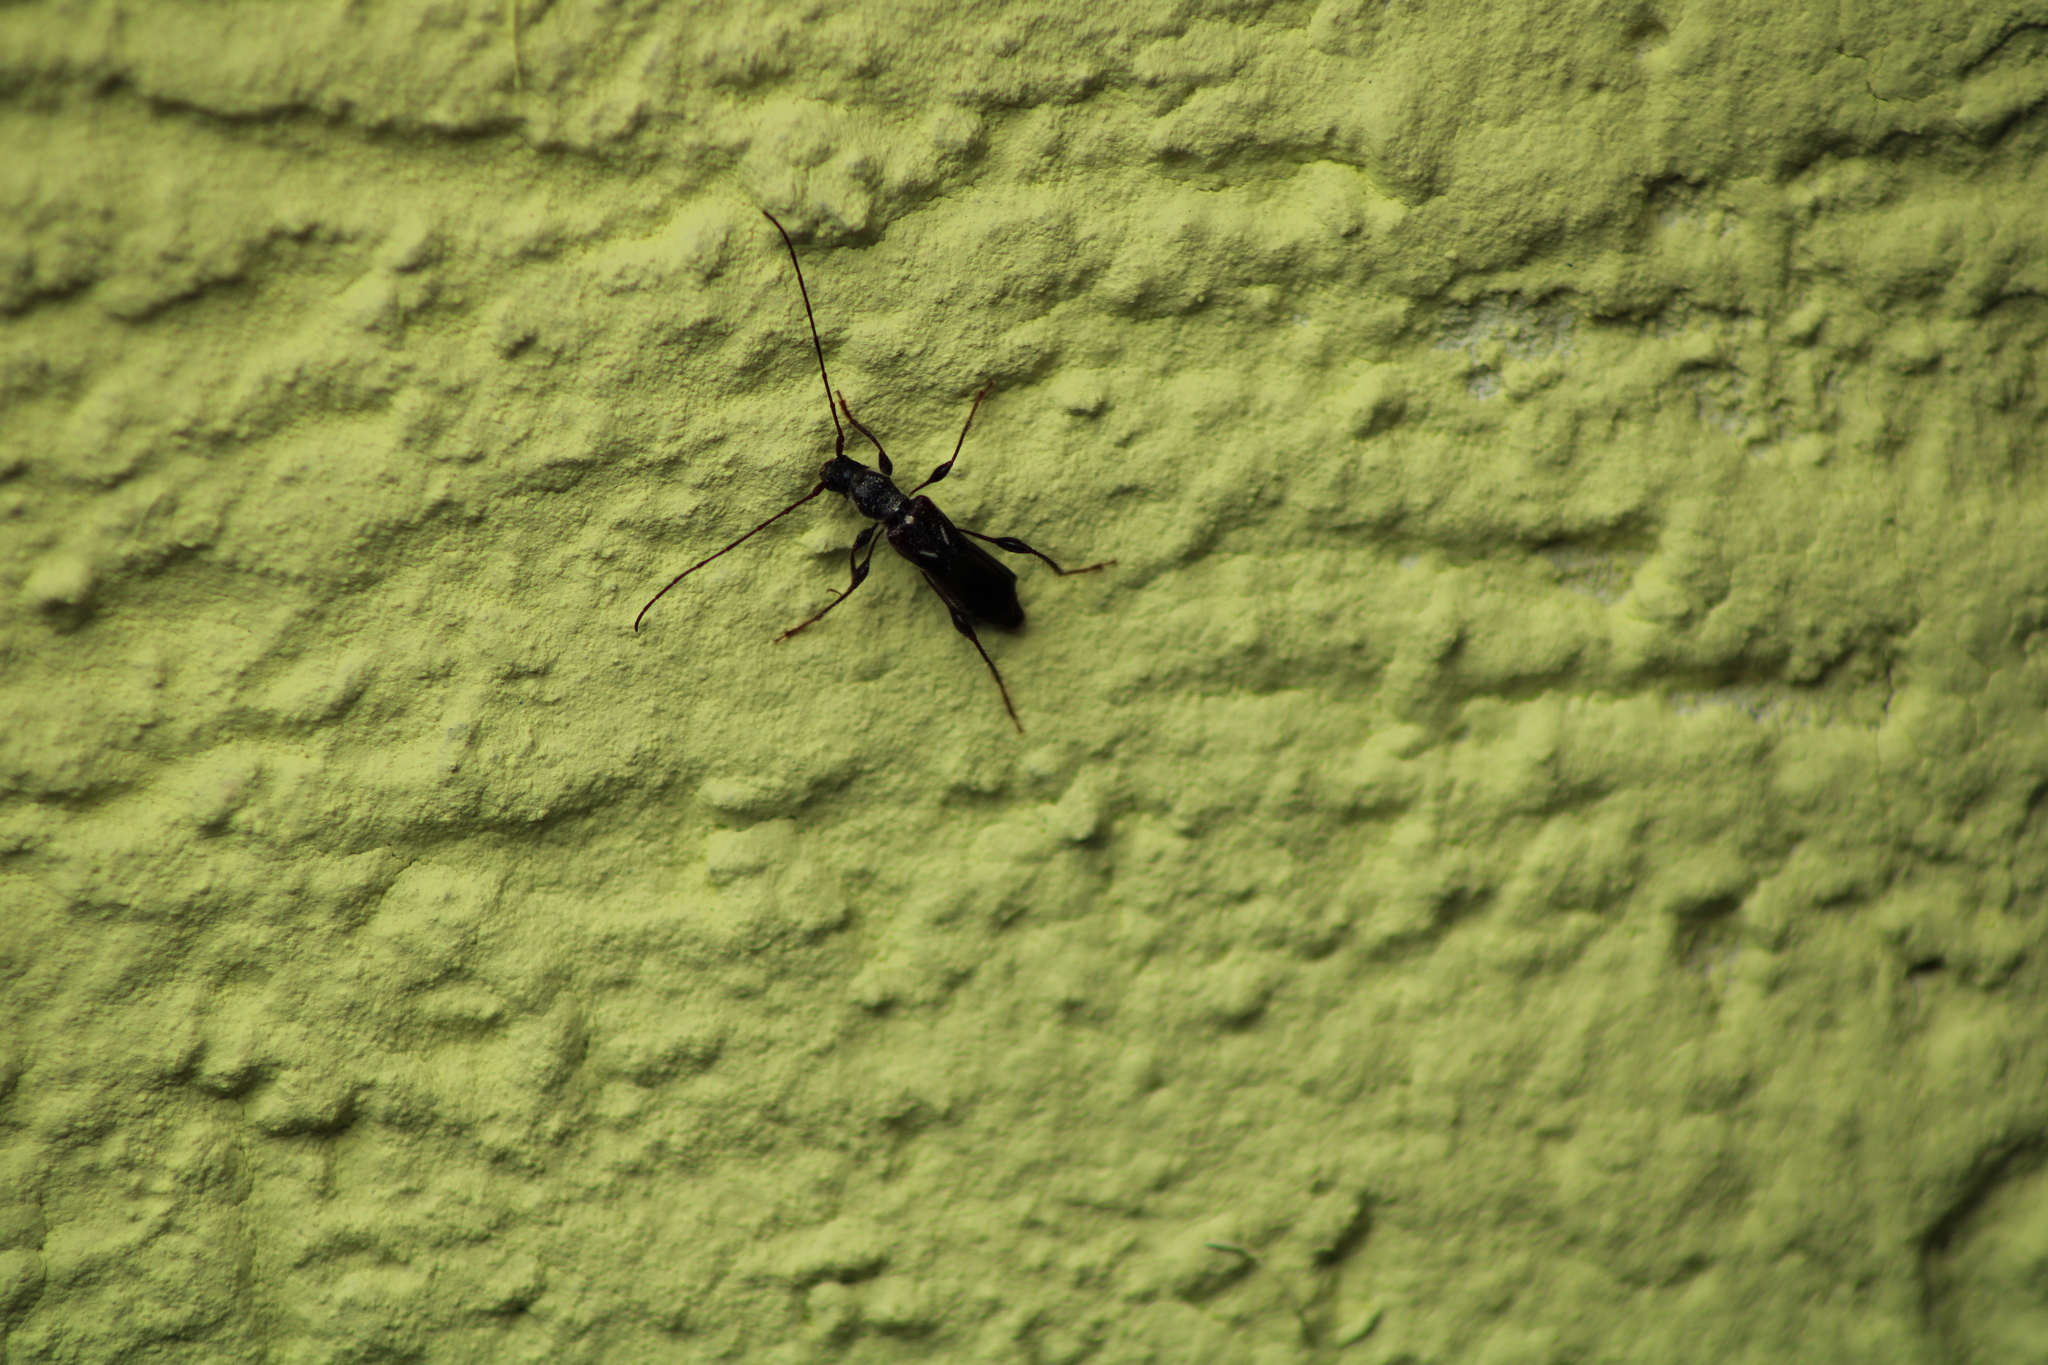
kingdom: Animalia
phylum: Arthropoda
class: Insecta
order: Coleoptera
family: Cerambycidae
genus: Molorchus
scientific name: Molorchus minor
